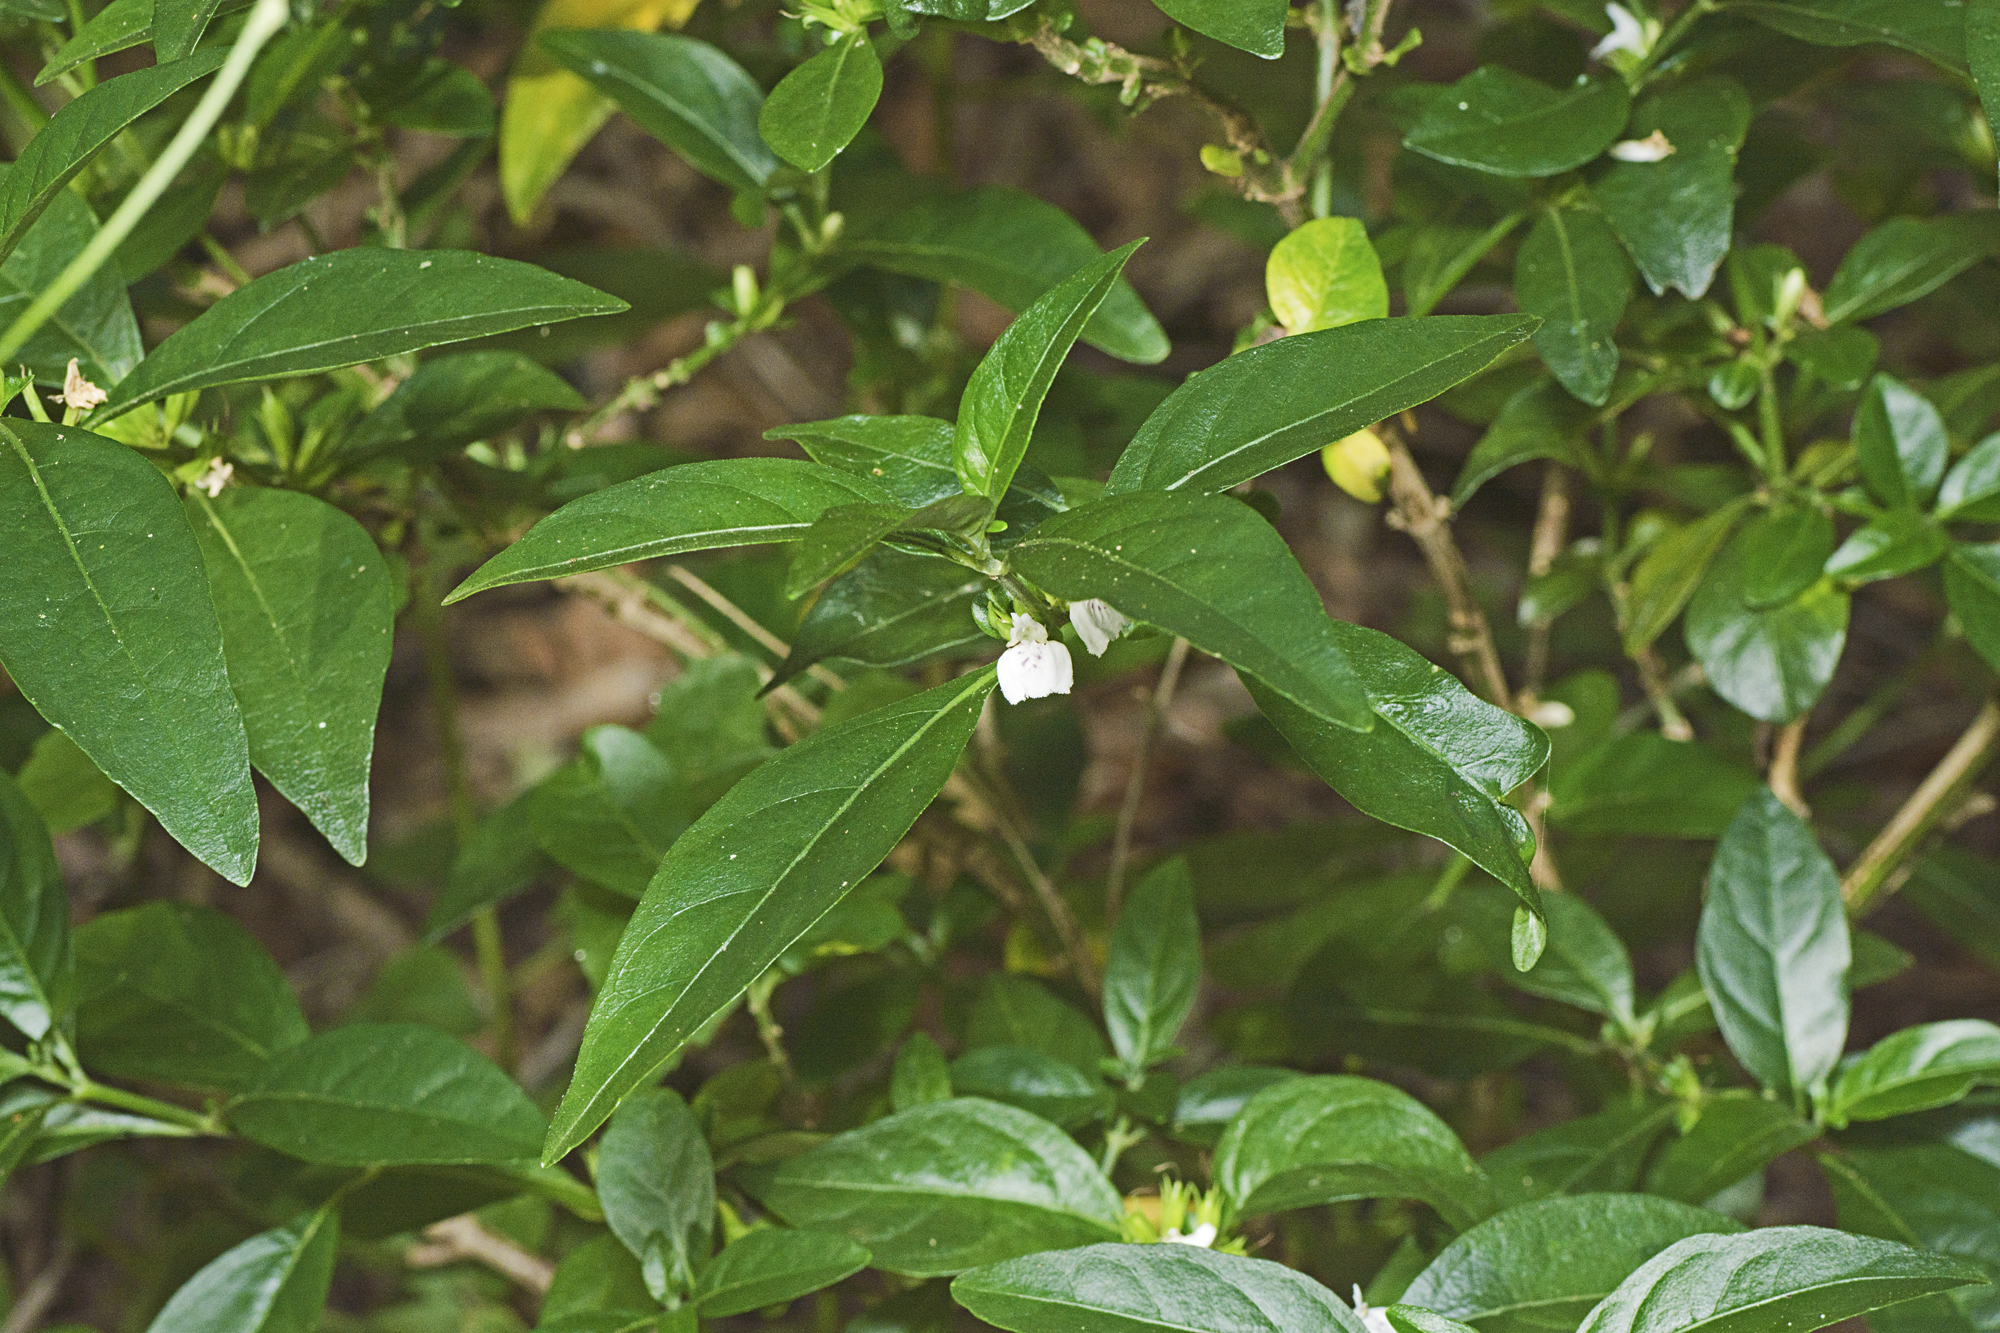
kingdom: Plantae
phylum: Tracheophyta
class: Magnoliopsida
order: Lamiales
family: Acanthaceae
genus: Justicia
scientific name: Justicia hygrophiloides
